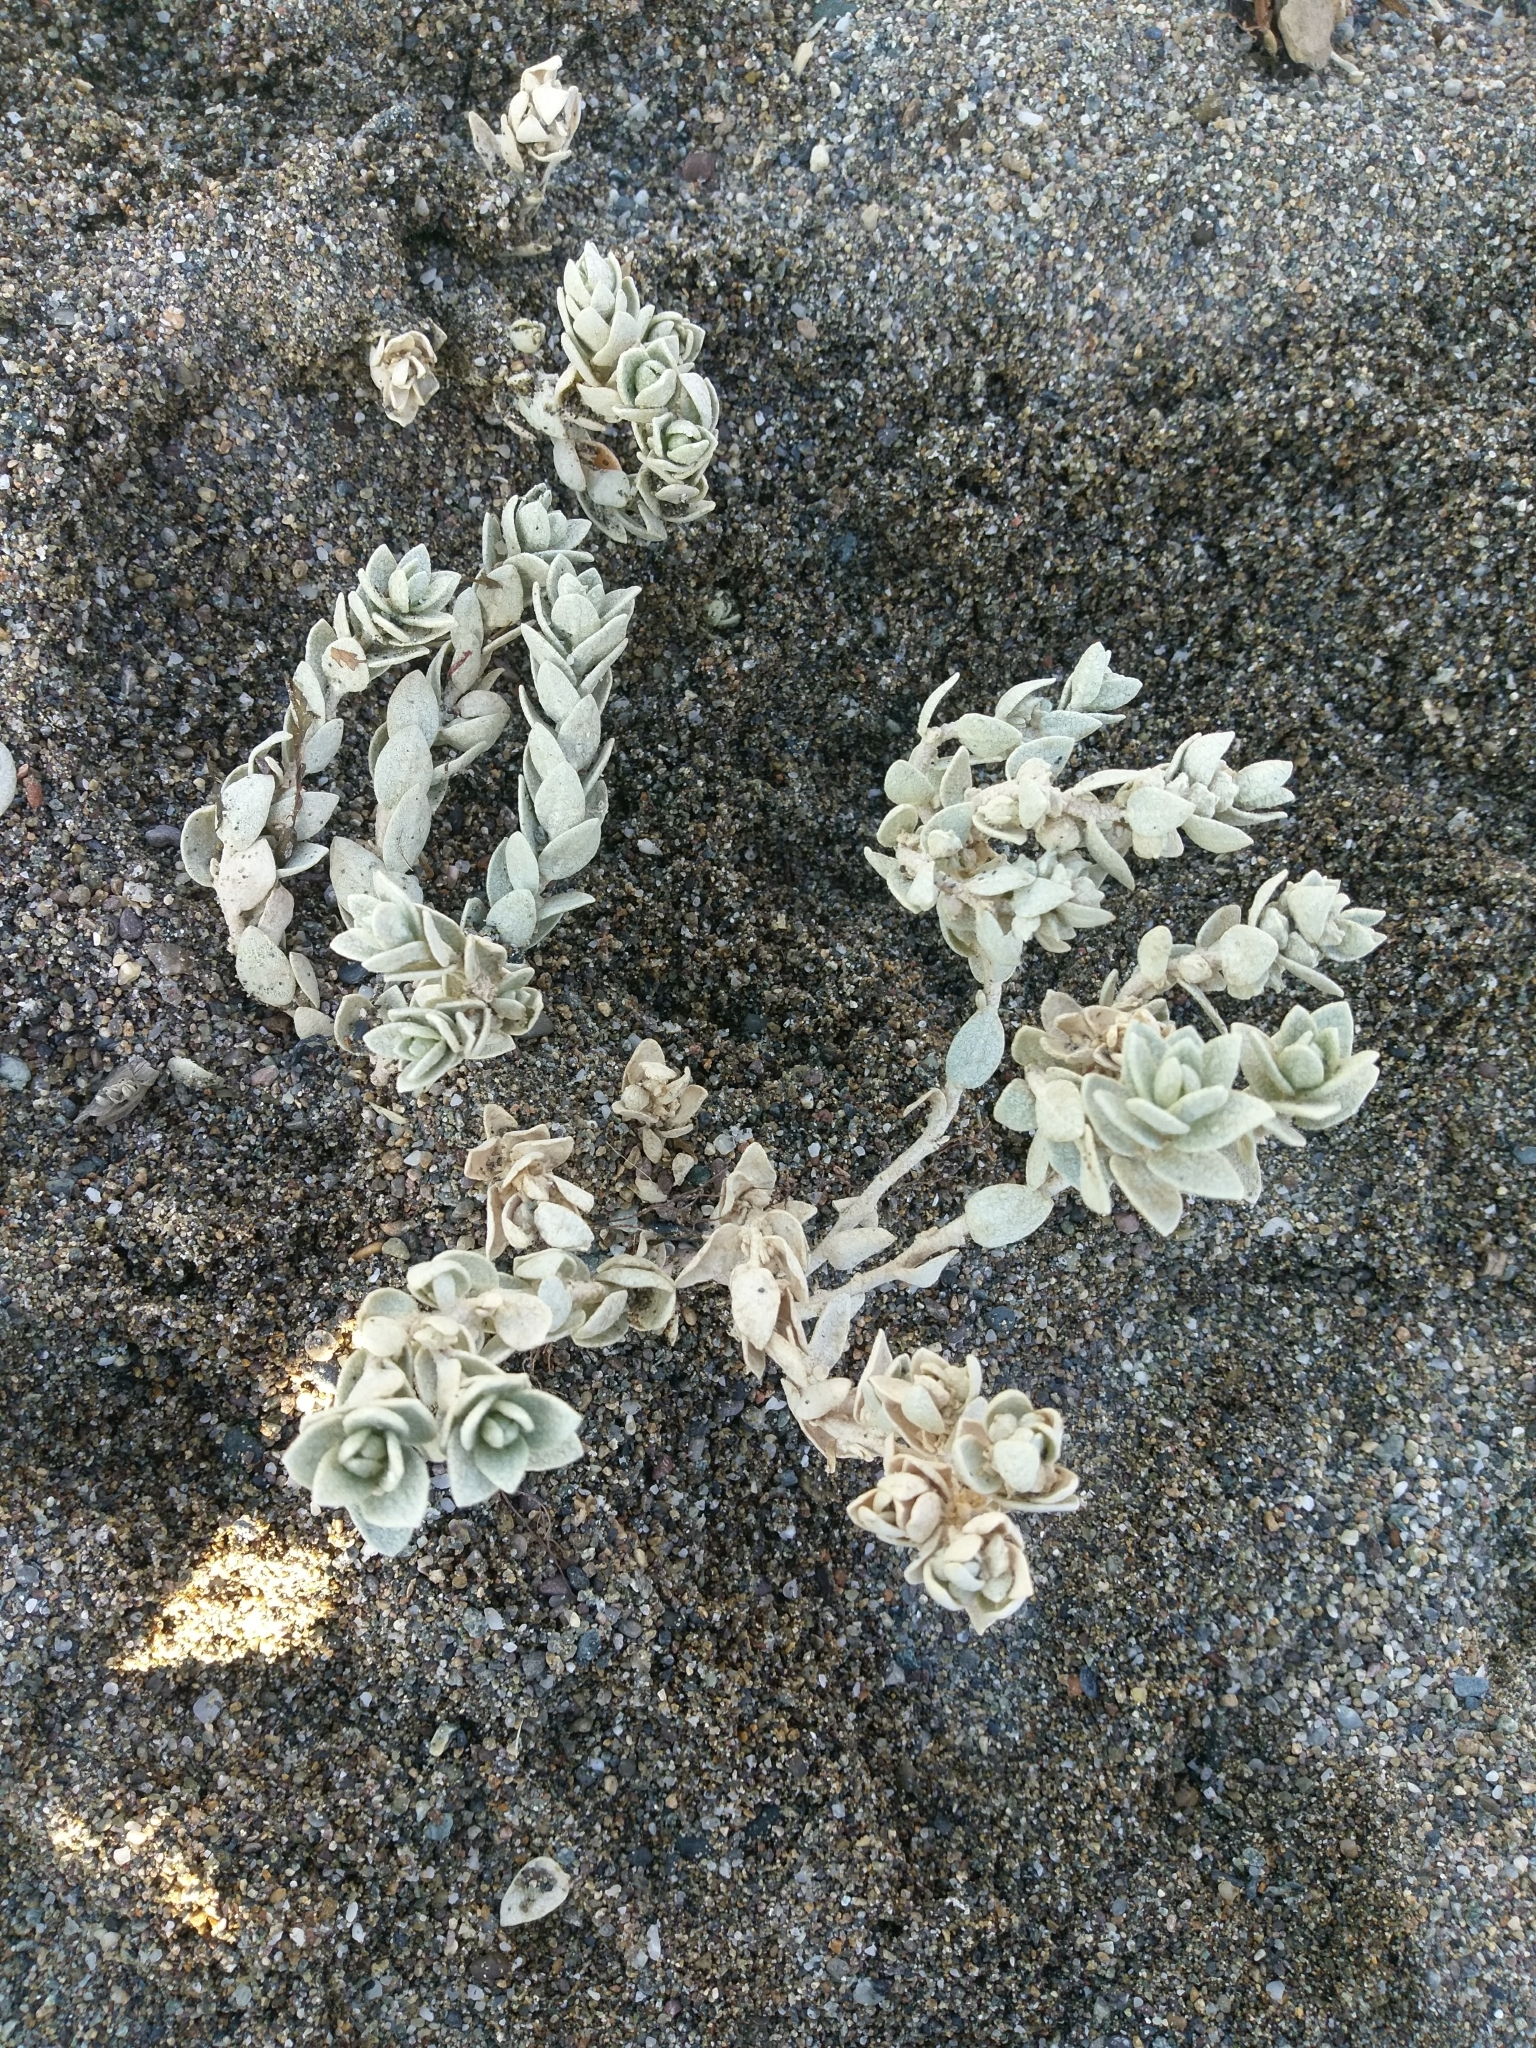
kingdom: Plantae
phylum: Tracheophyta
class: Magnoliopsida
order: Caryophyllales
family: Amaranthaceae
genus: Atriplex
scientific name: Atriplex leucophylla
